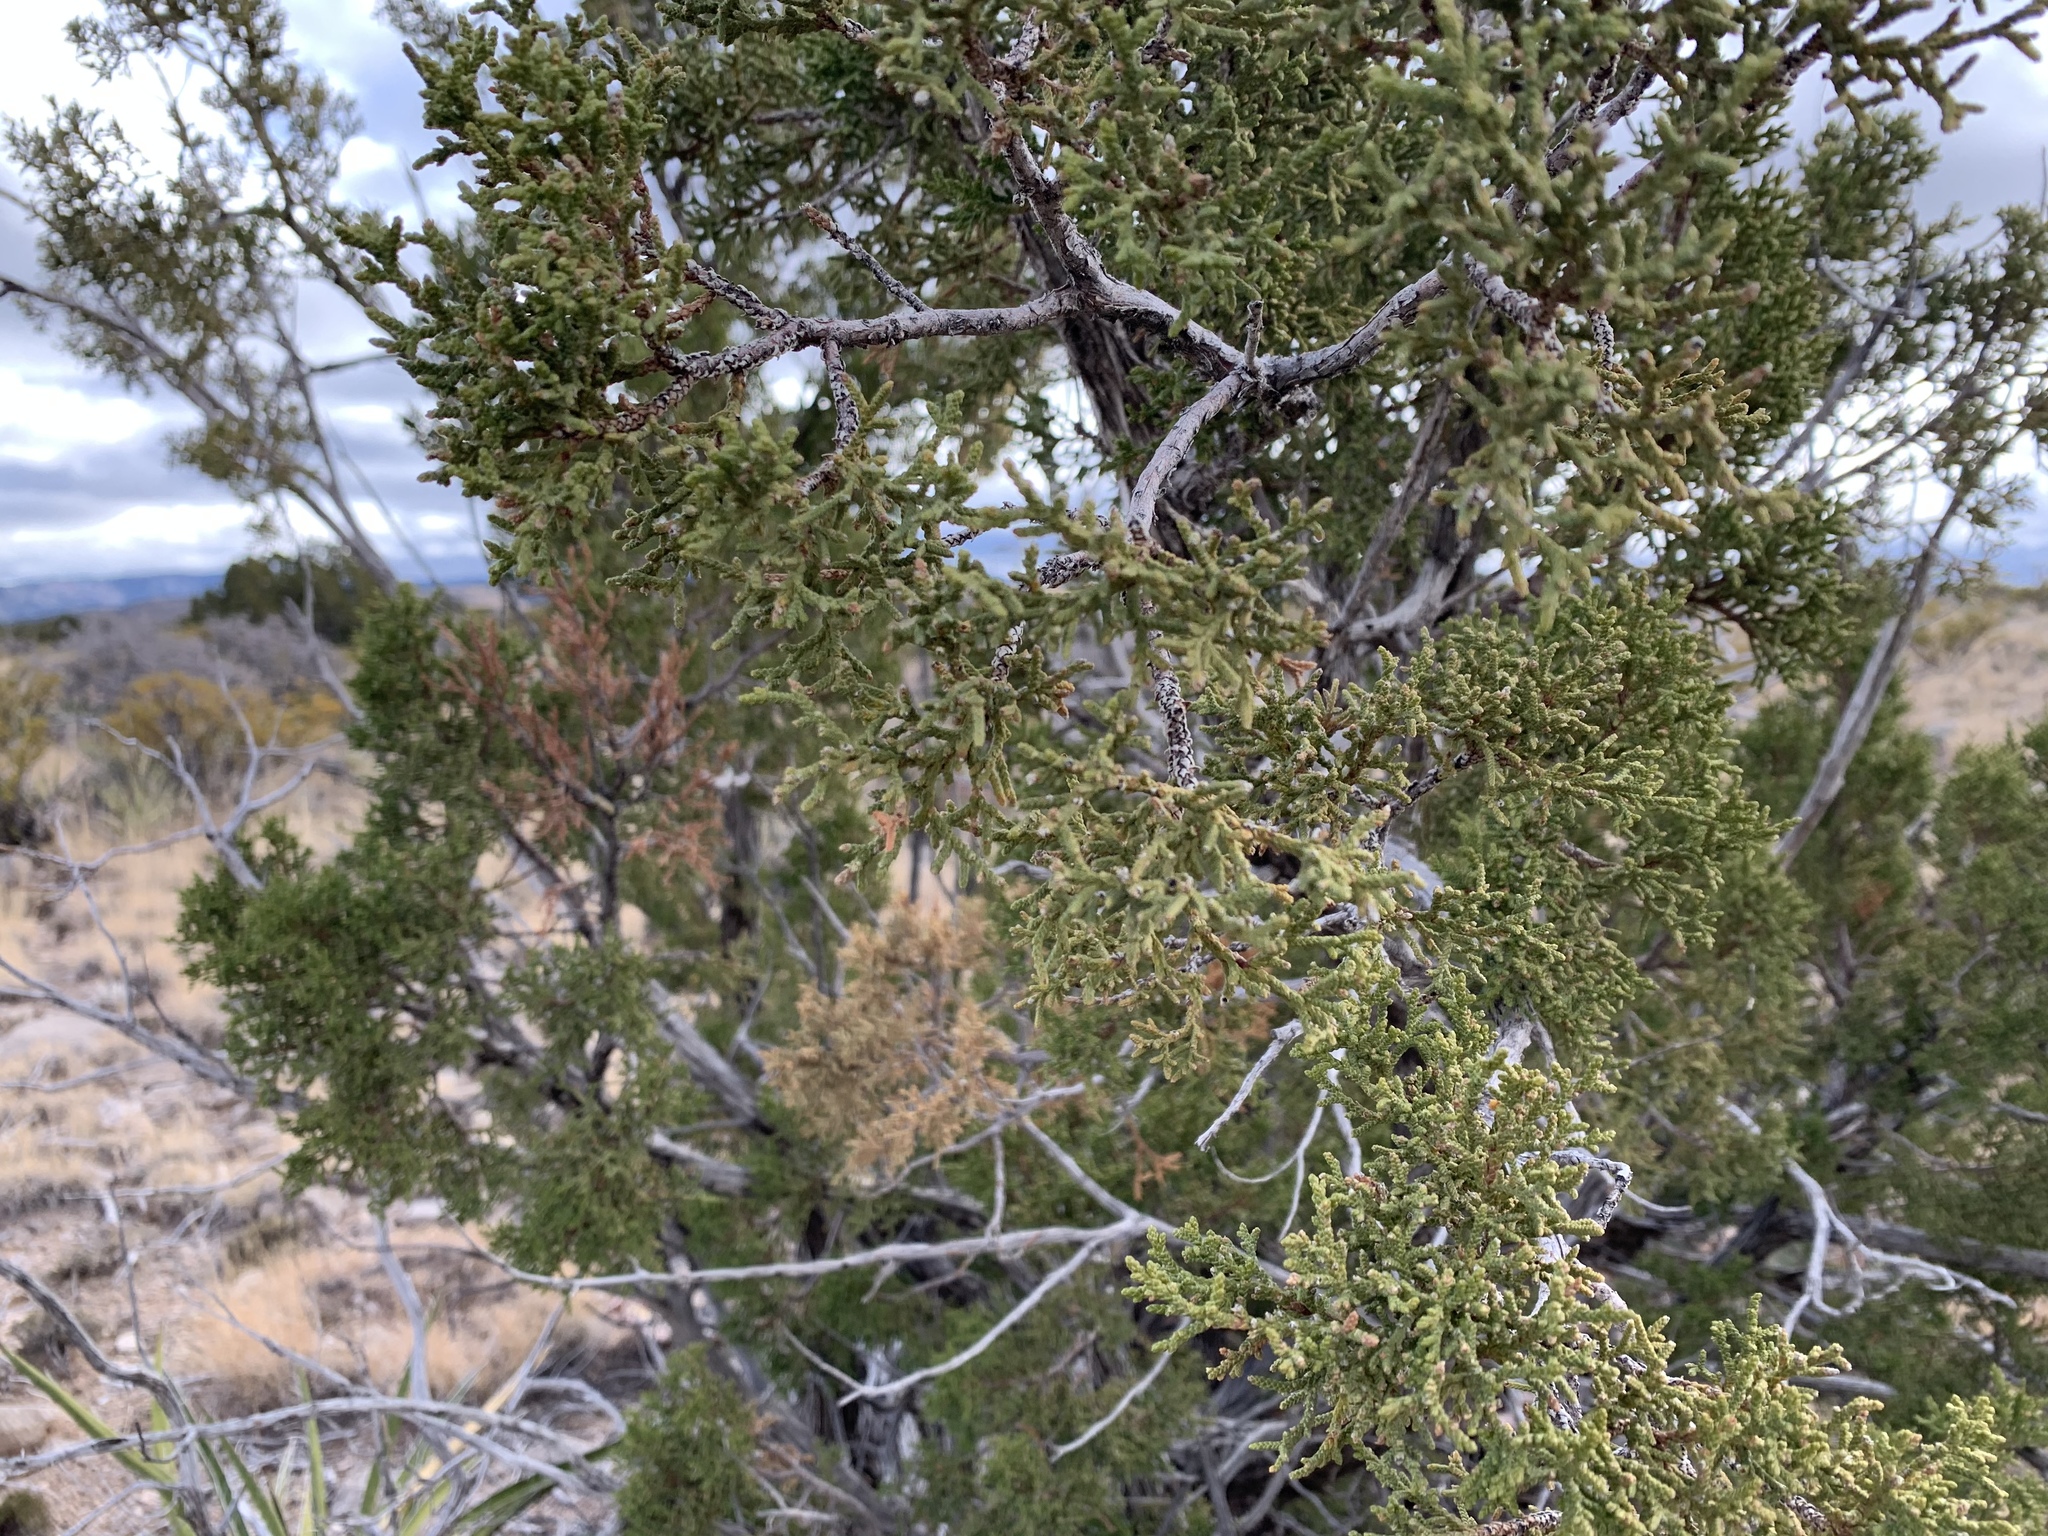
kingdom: Plantae
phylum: Tracheophyta
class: Pinopsida
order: Pinales
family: Cupressaceae
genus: Juniperus
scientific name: Juniperus monosperma
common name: One-seed juniper
